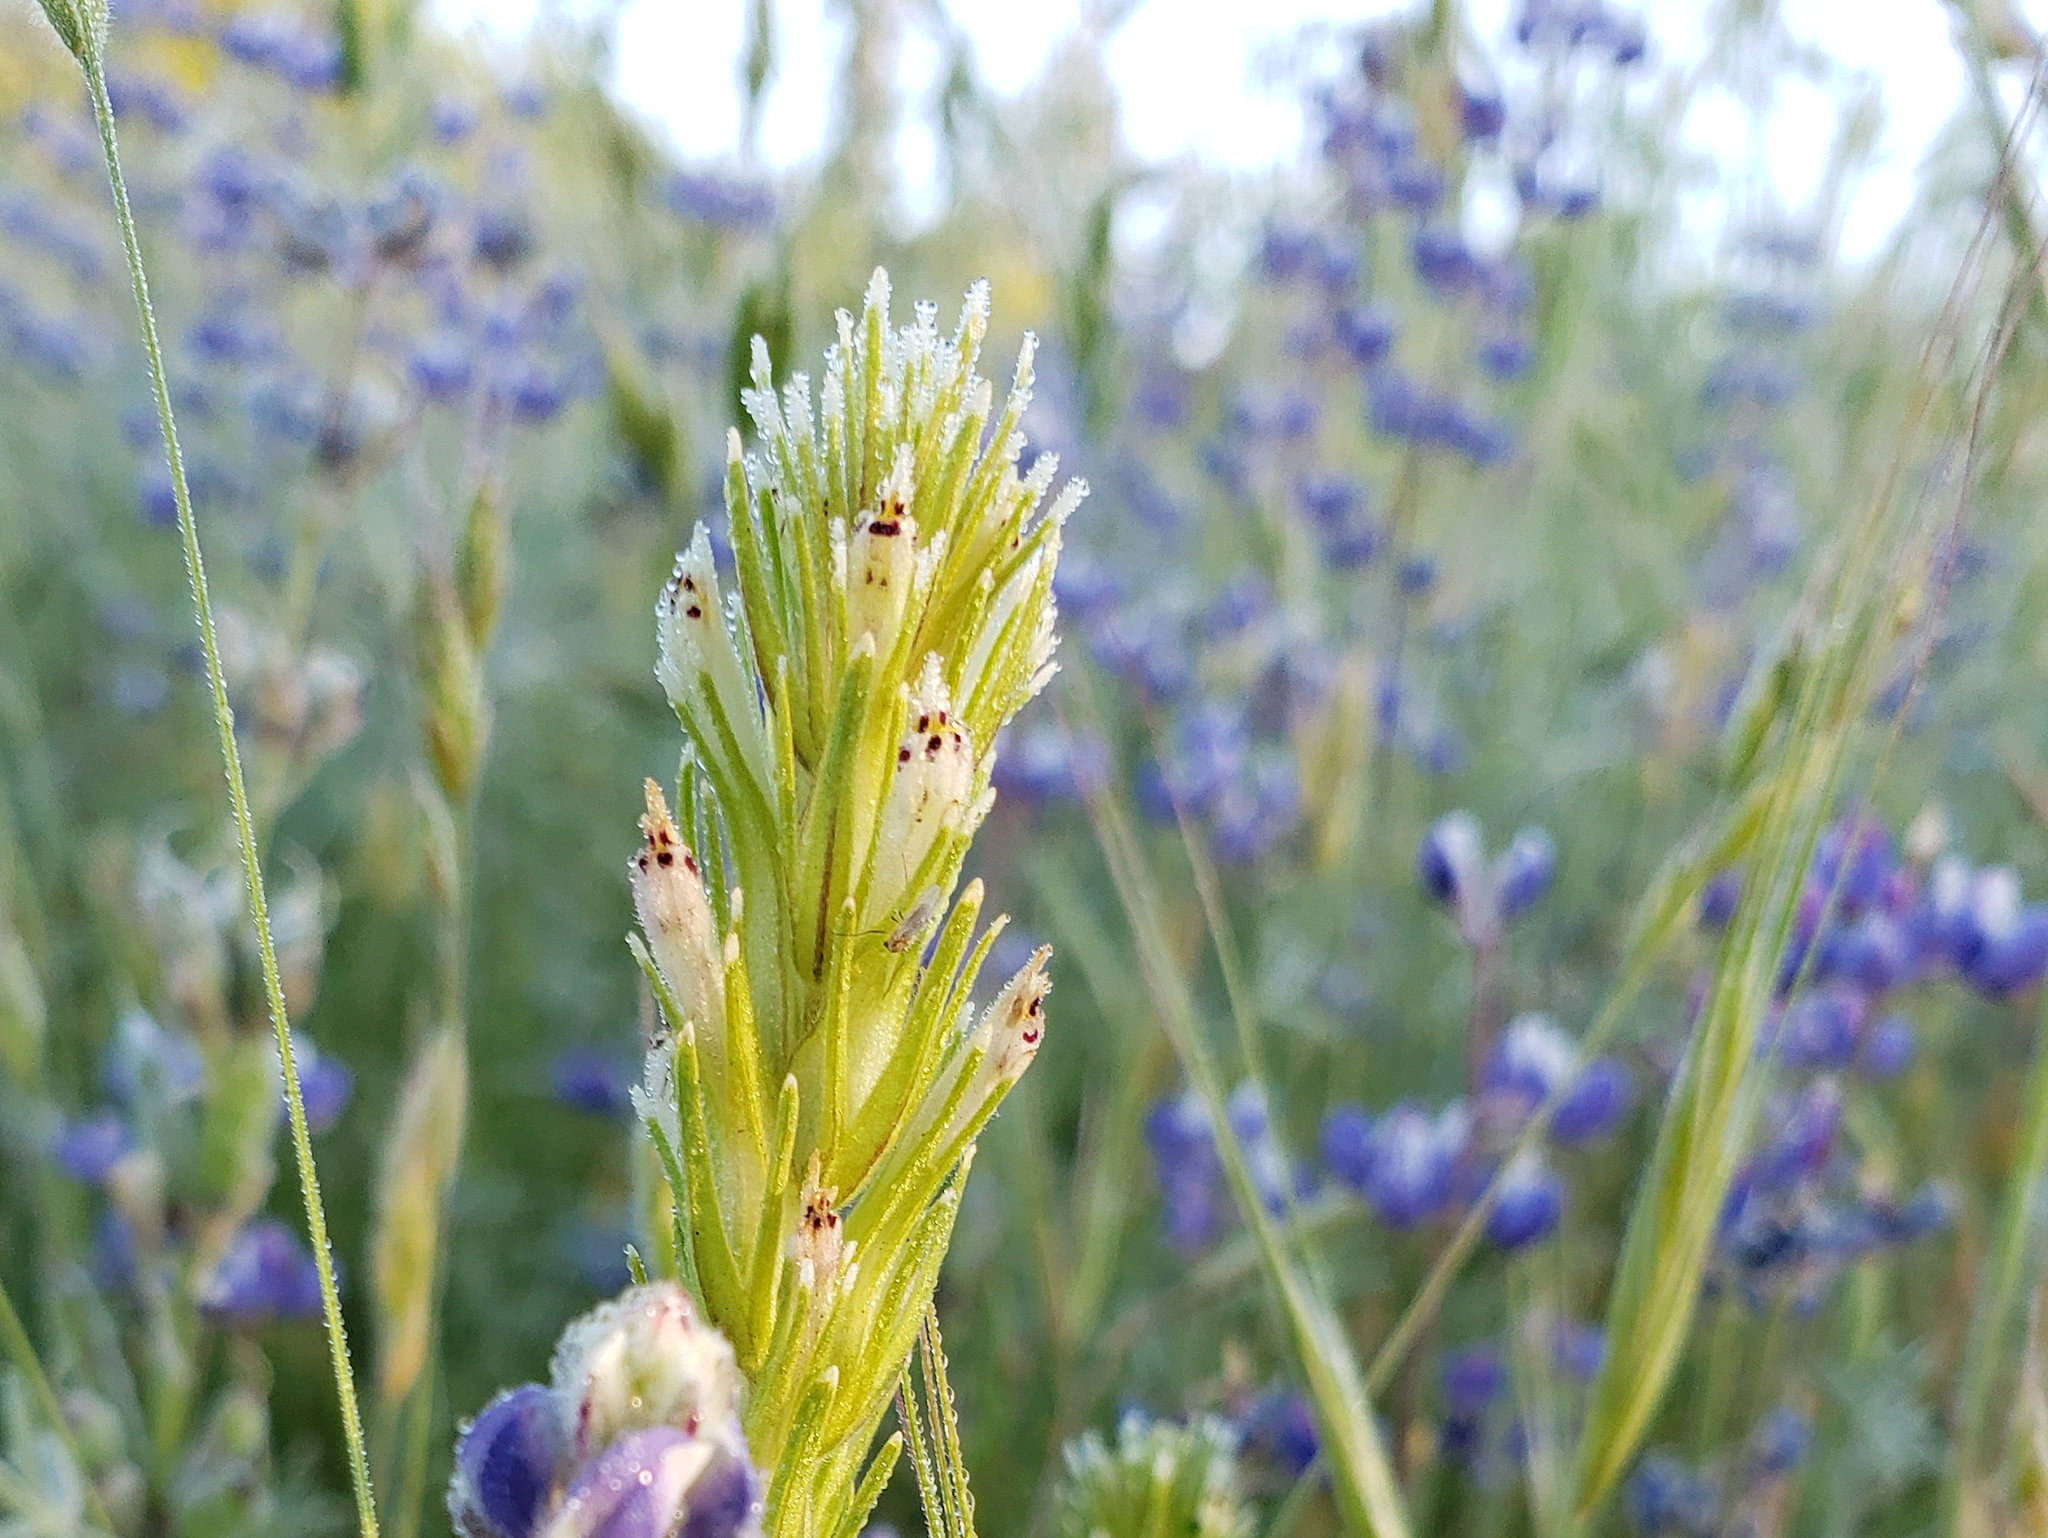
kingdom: Plantae
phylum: Tracheophyta
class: Magnoliopsida
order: Lamiales
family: Orobanchaceae
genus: Castilleja
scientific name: Castilleja attenuata
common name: Valley tassels
